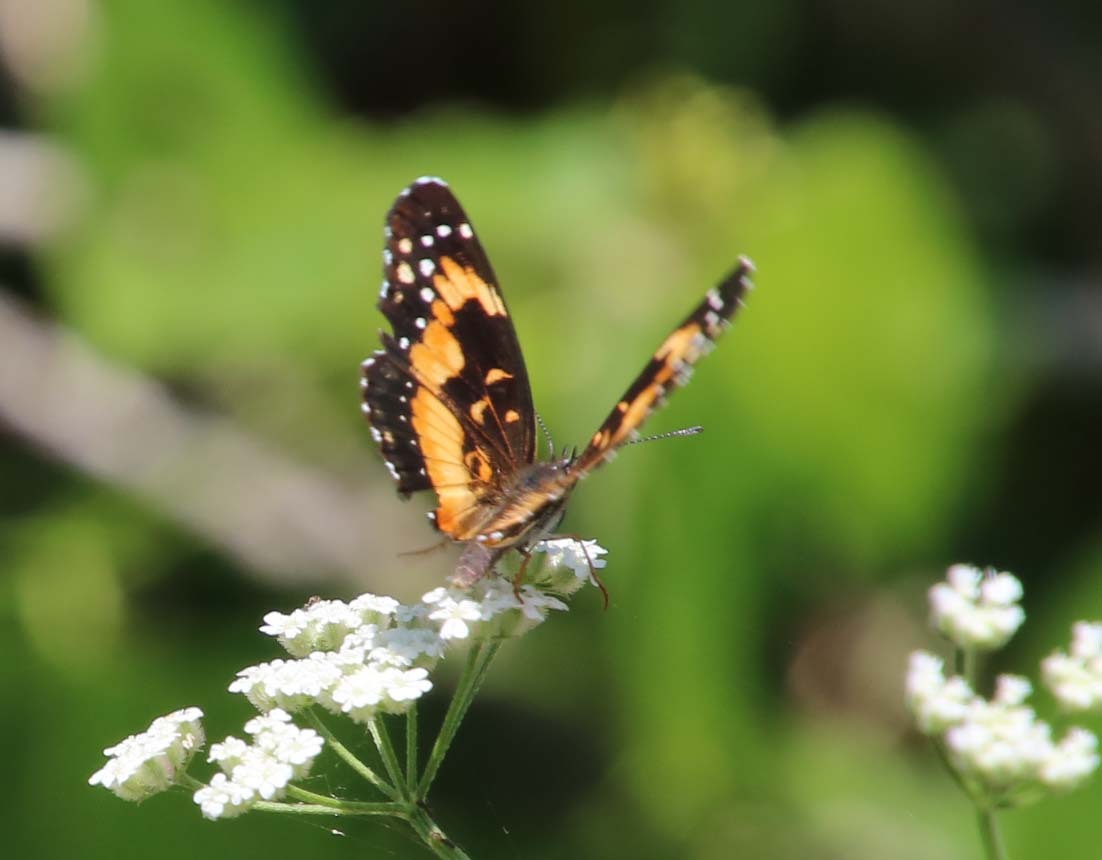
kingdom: Animalia
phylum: Arthropoda
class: Insecta
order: Lepidoptera
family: Nymphalidae
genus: Chlosyne
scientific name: Chlosyne lacinia
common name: Bordered patch
